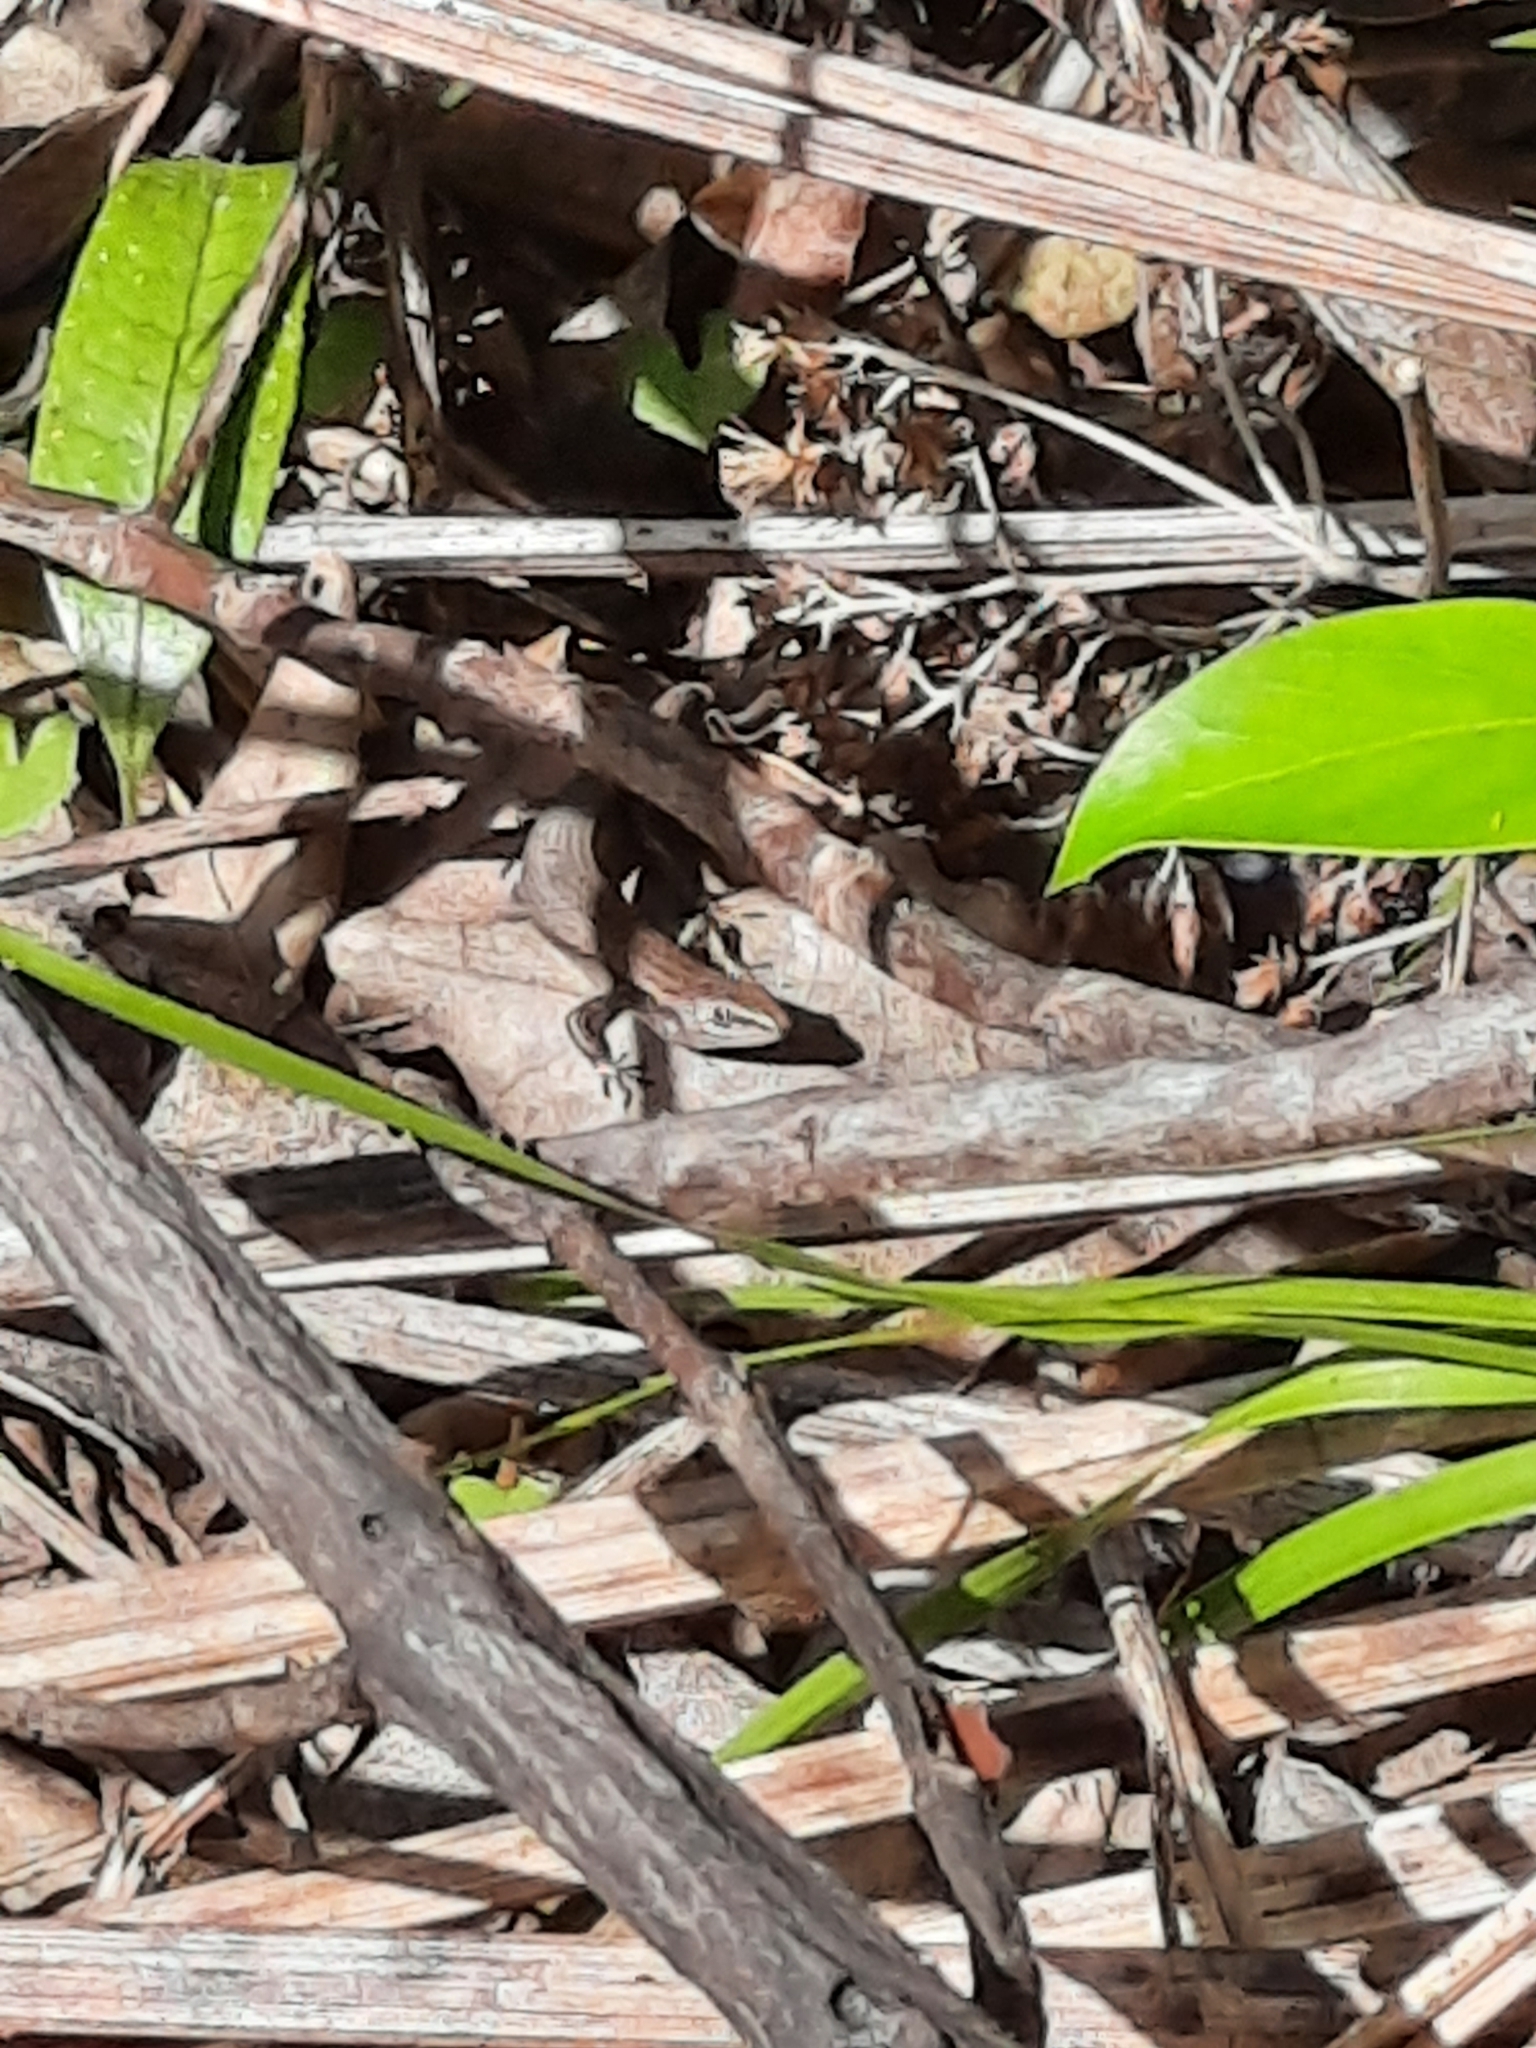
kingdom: Animalia
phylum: Chordata
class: Squamata
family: Scincidae
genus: Lampropholis
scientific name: Lampropholis delicata
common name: Plague skink
